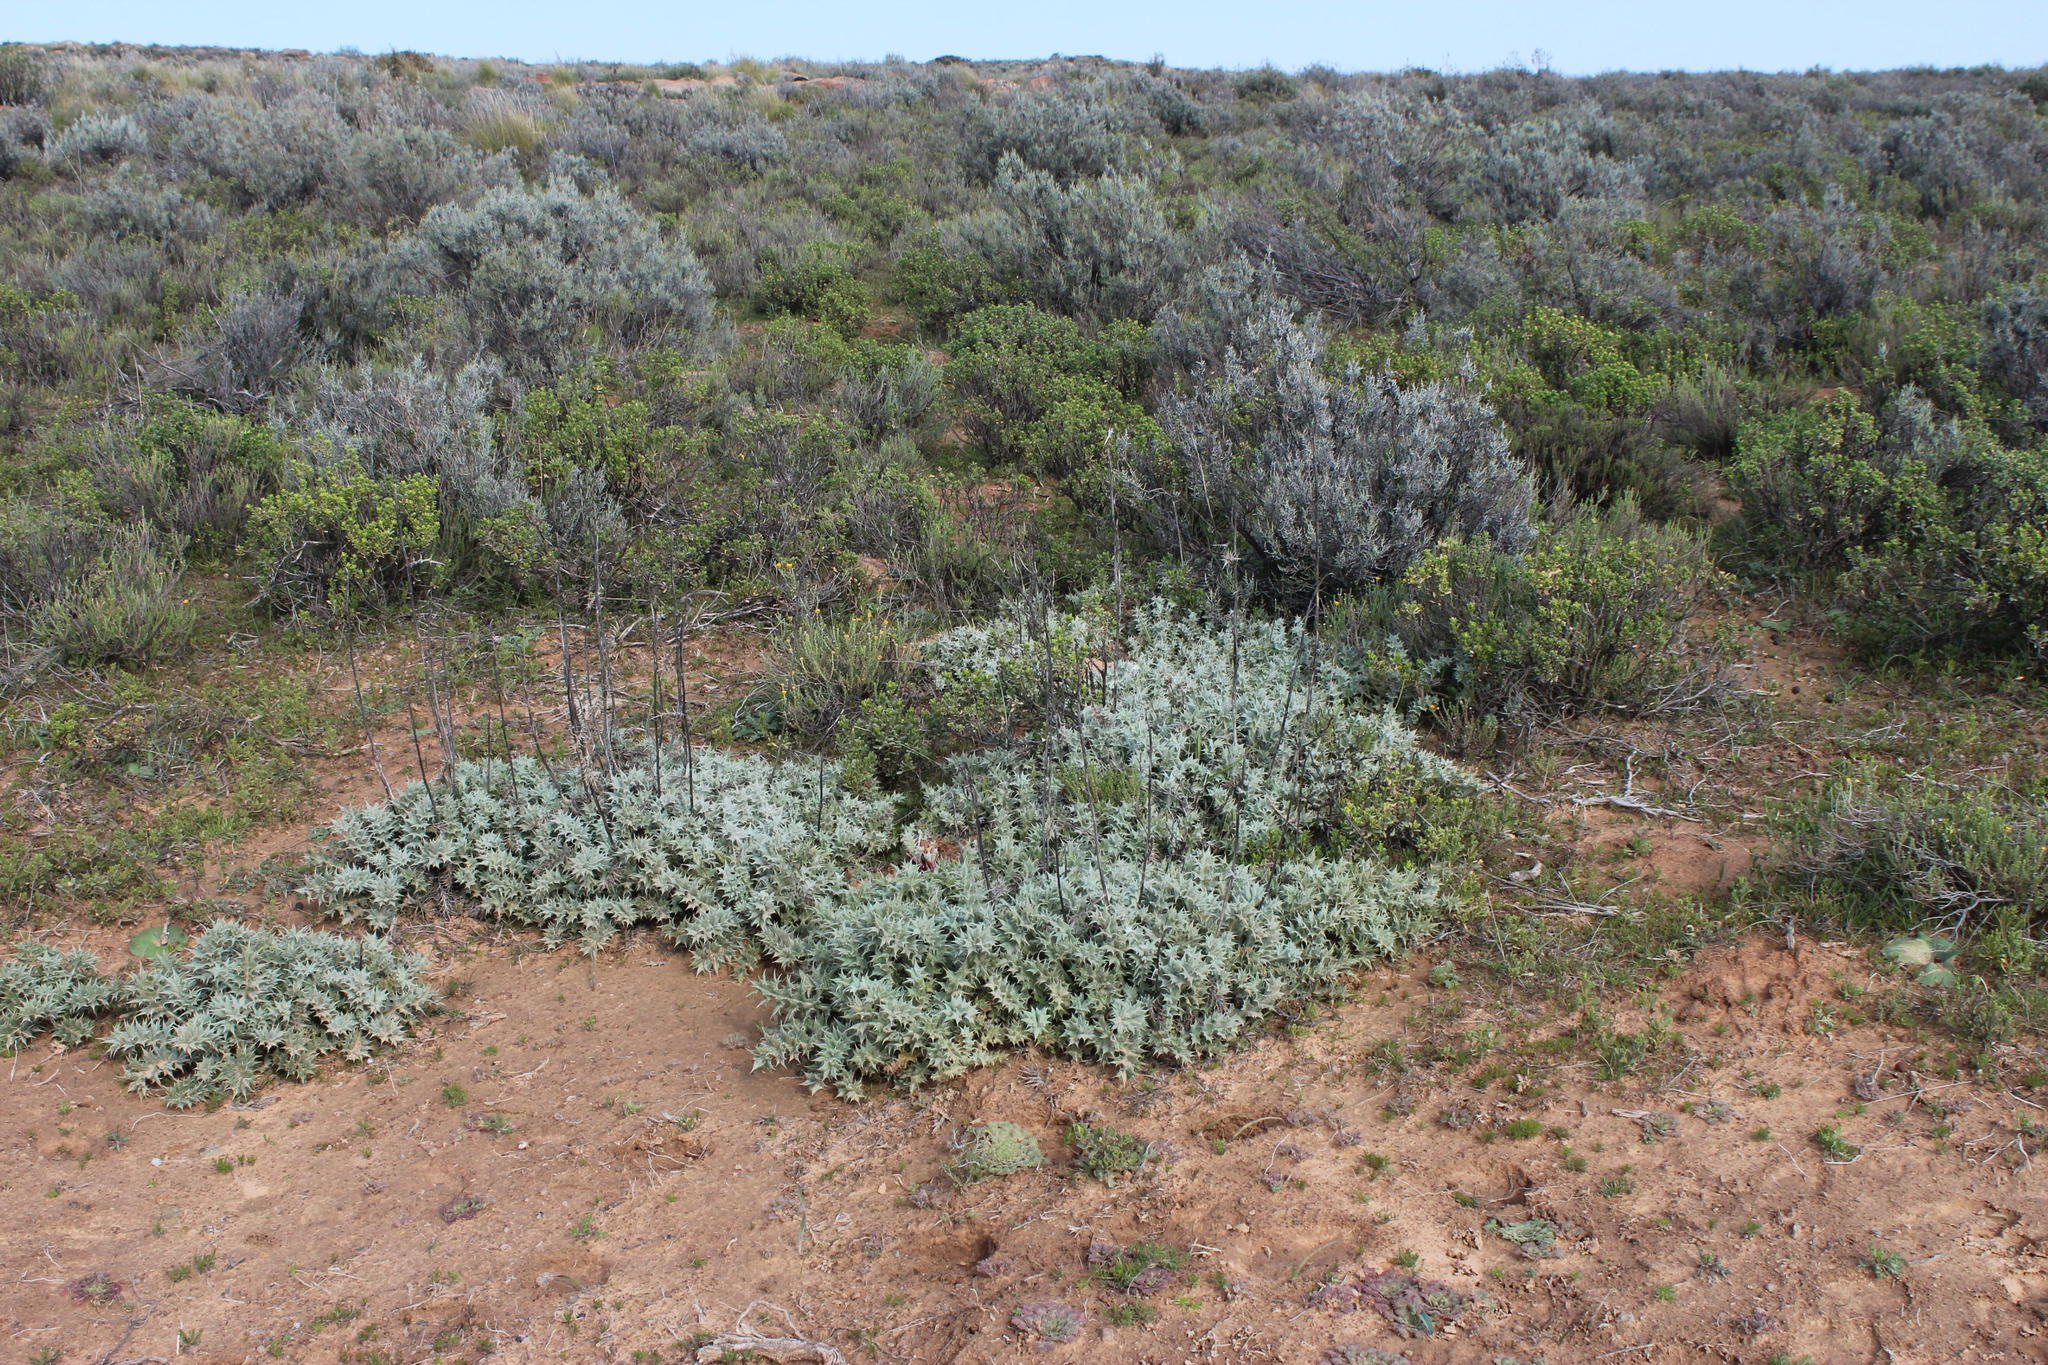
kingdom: Plantae
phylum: Tracheophyta
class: Magnoliopsida
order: Asterales
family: Asteraceae
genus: Berkheya
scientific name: Berkheya carlinifolia
